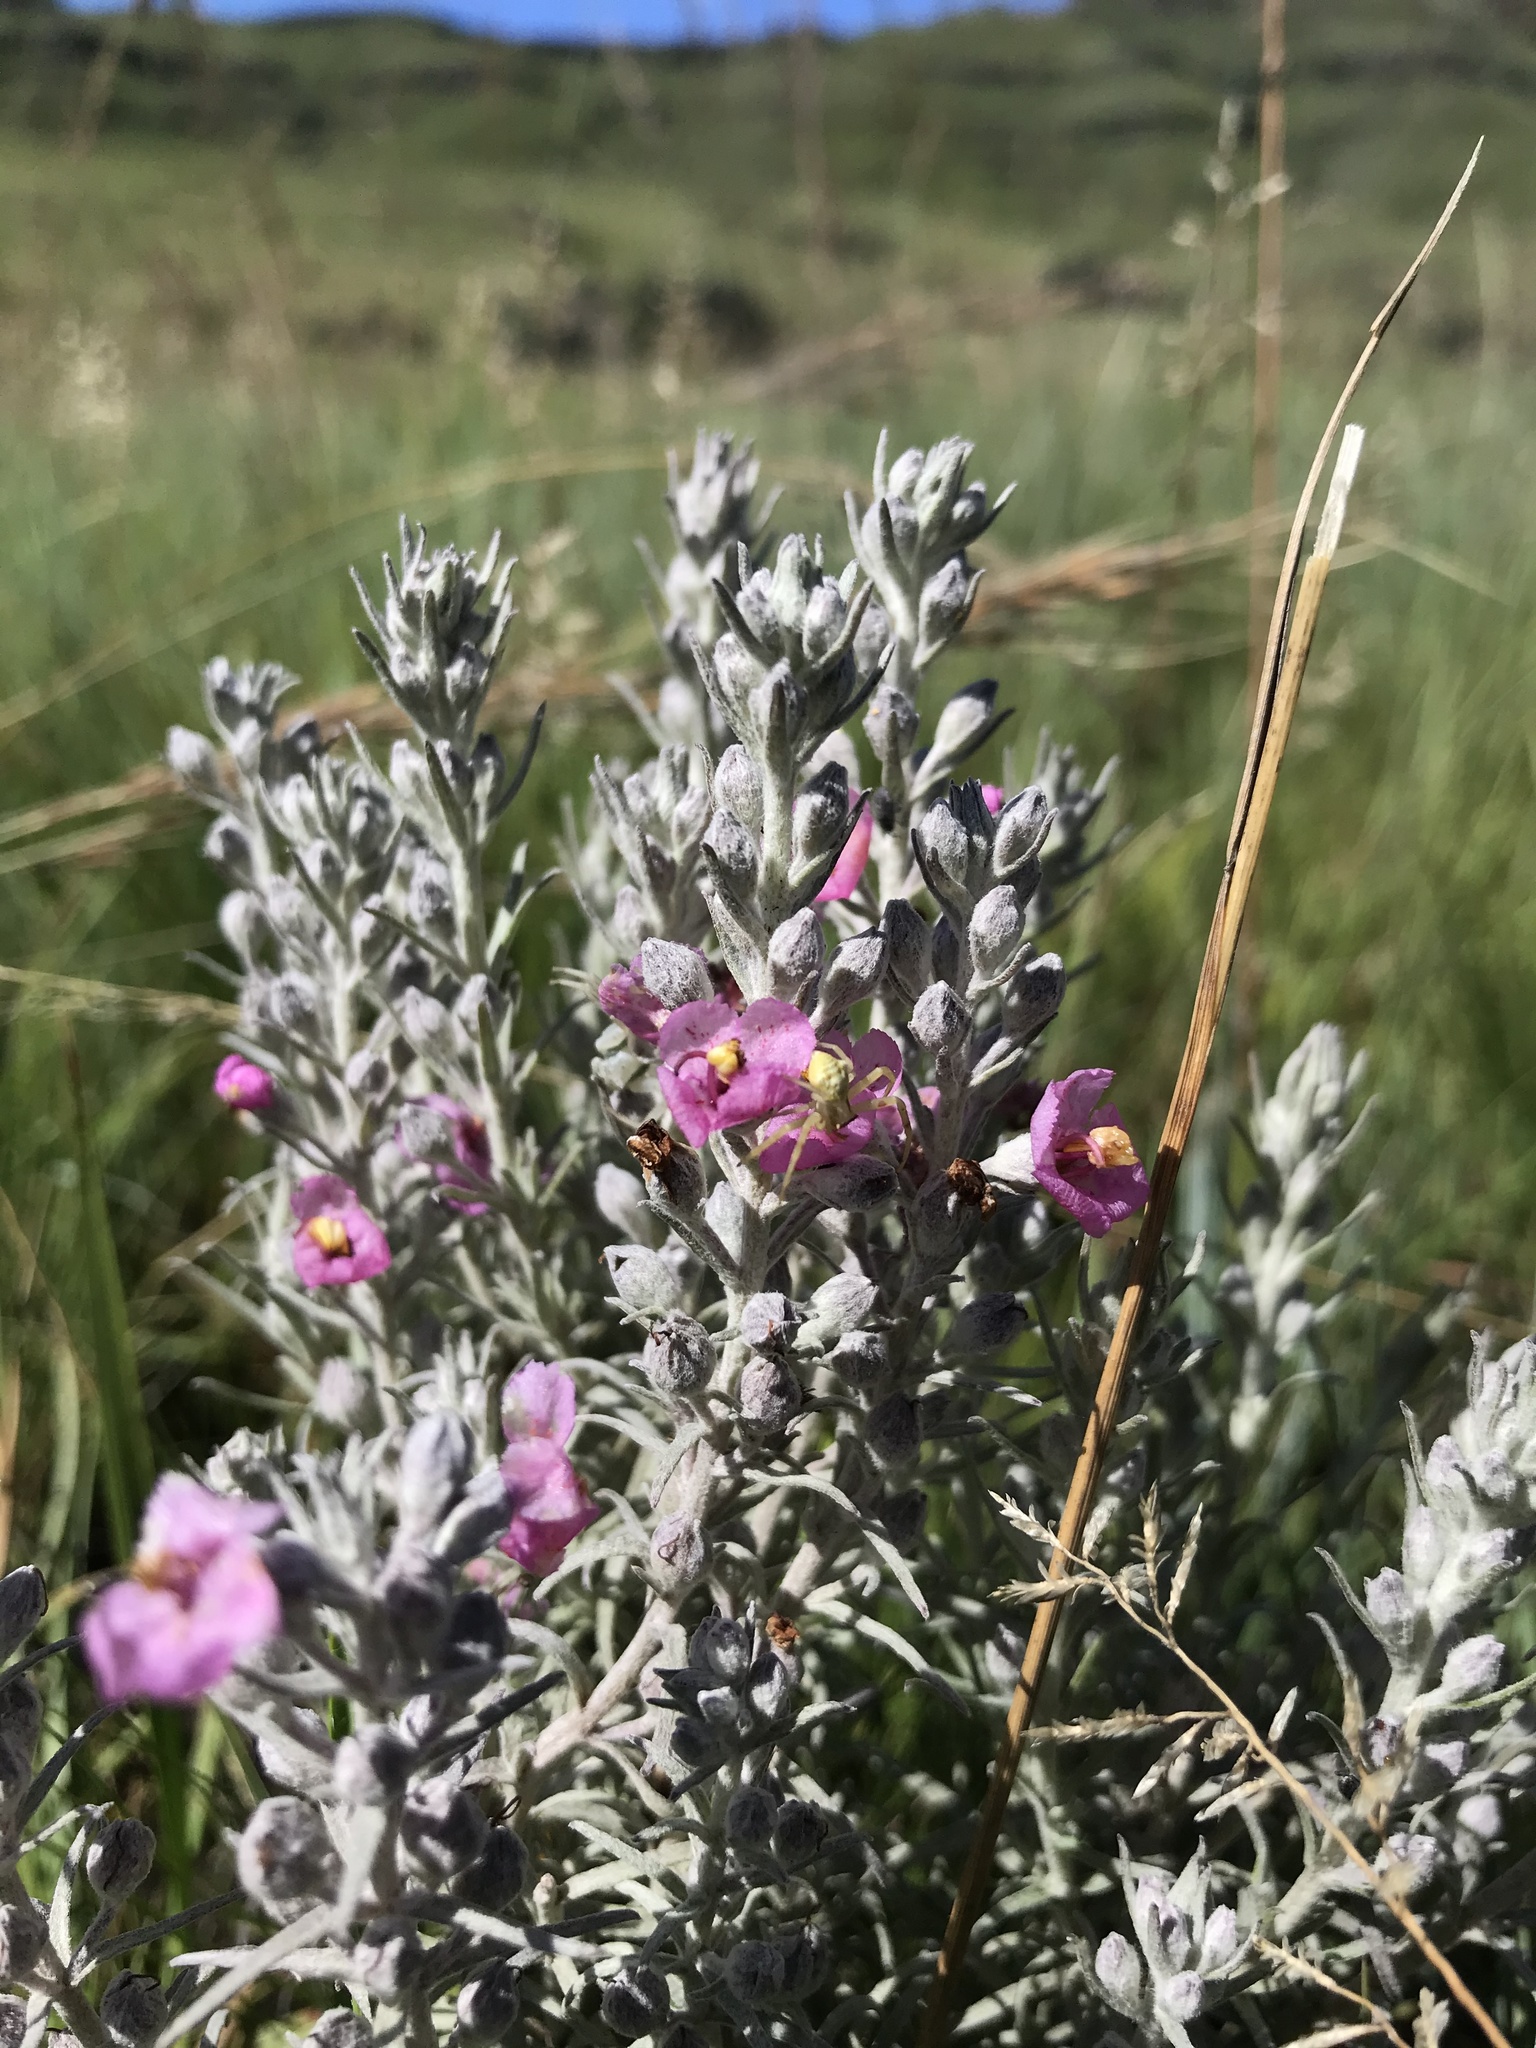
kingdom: Plantae
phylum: Tracheophyta
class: Magnoliopsida
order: Lamiales
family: Orobanchaceae
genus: Sopubia
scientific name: Sopubia cana
